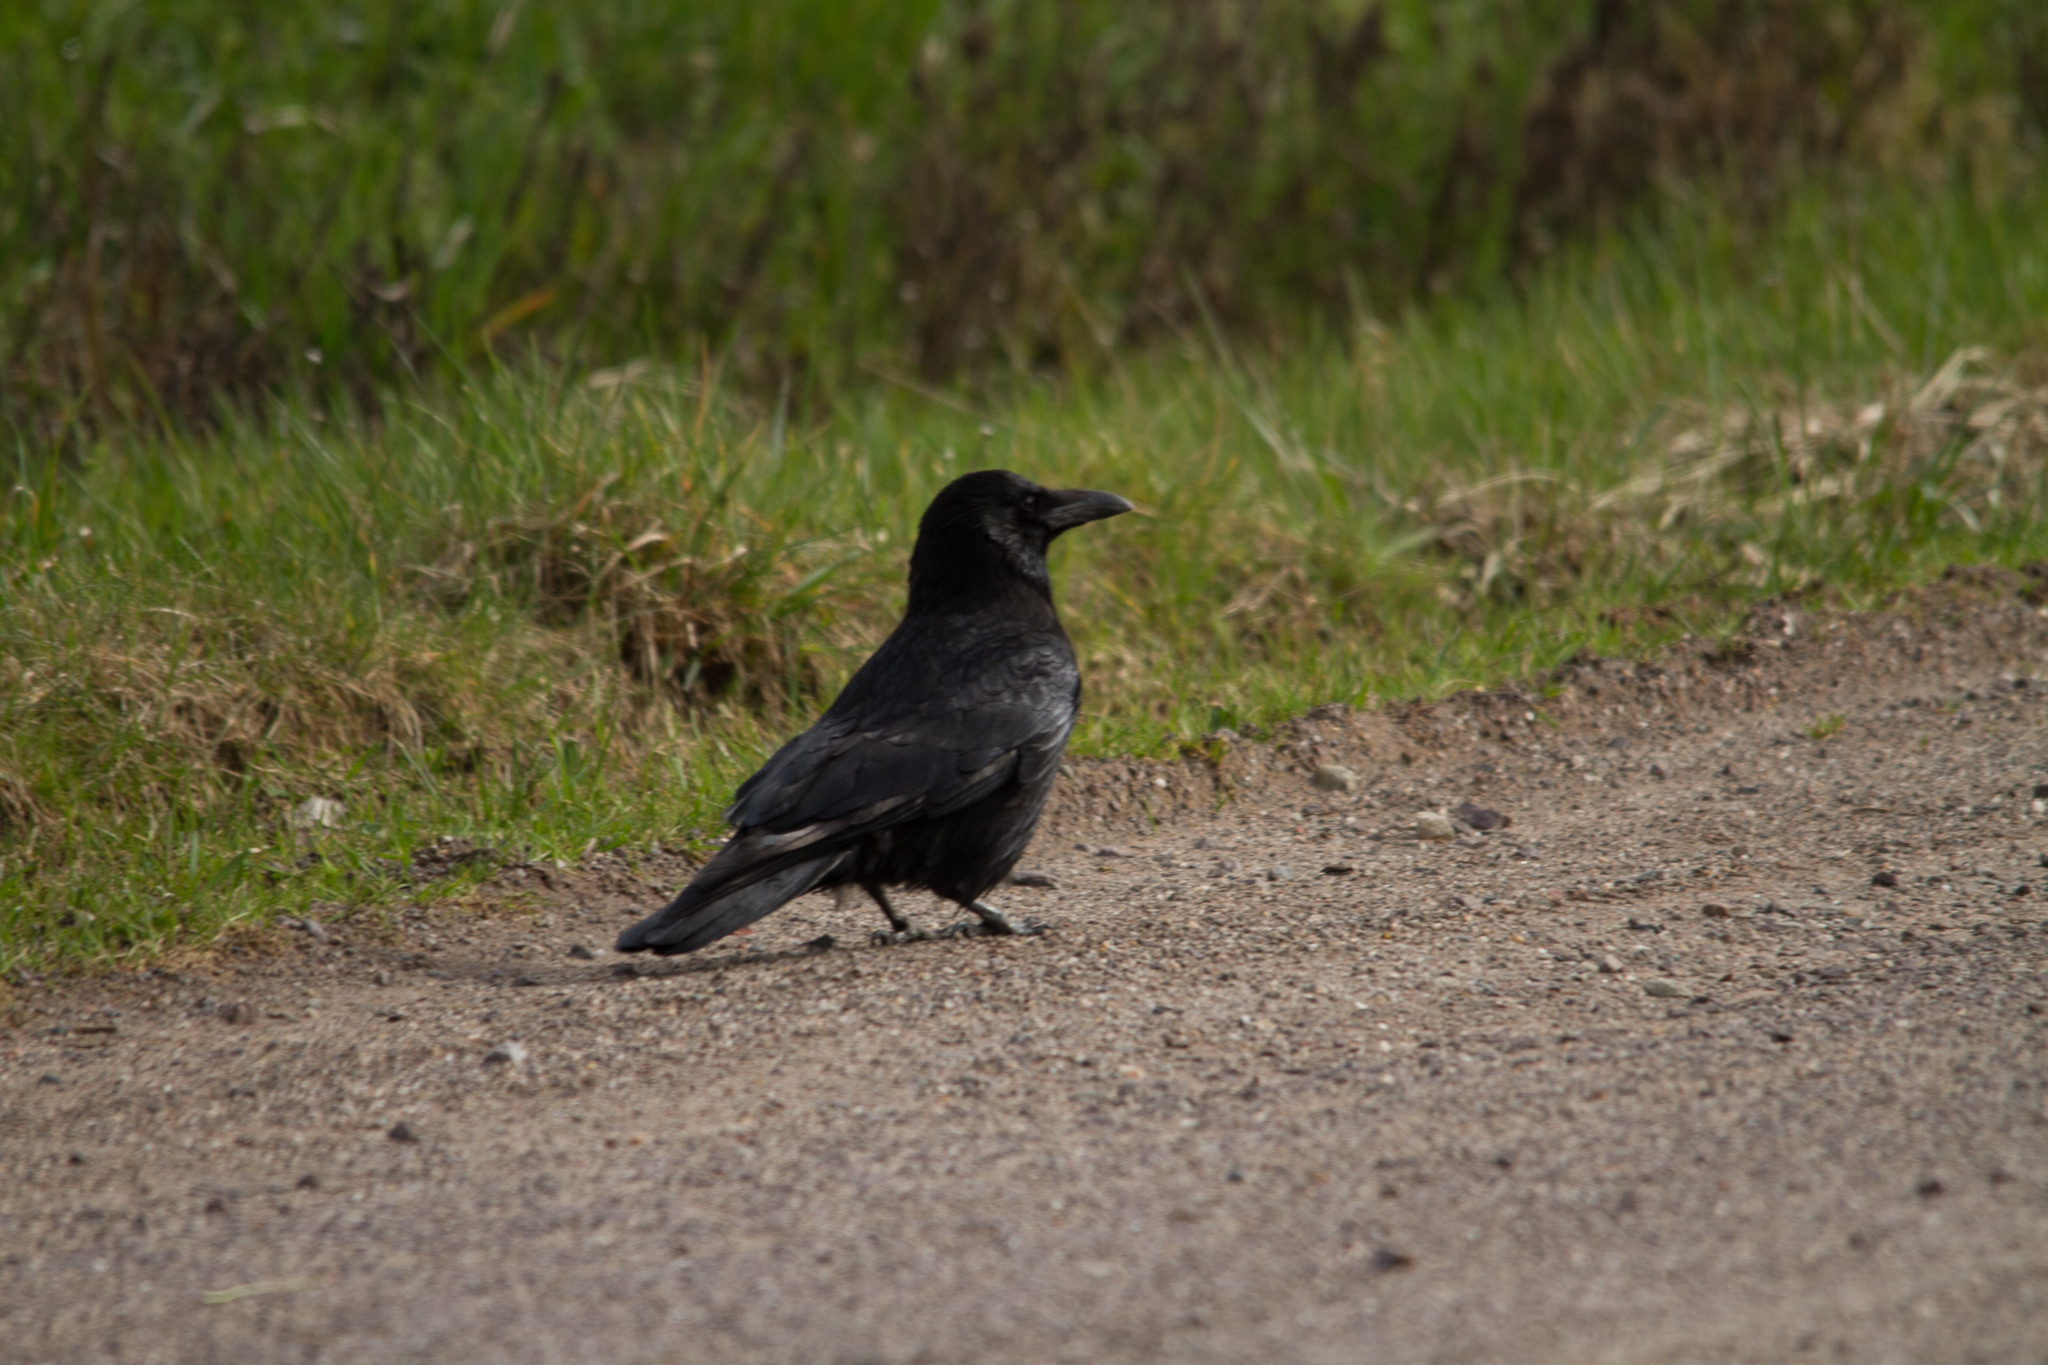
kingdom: Animalia
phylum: Chordata
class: Aves
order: Passeriformes
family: Corvidae
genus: Corvus
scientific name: Corvus corone
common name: Carrion crow
